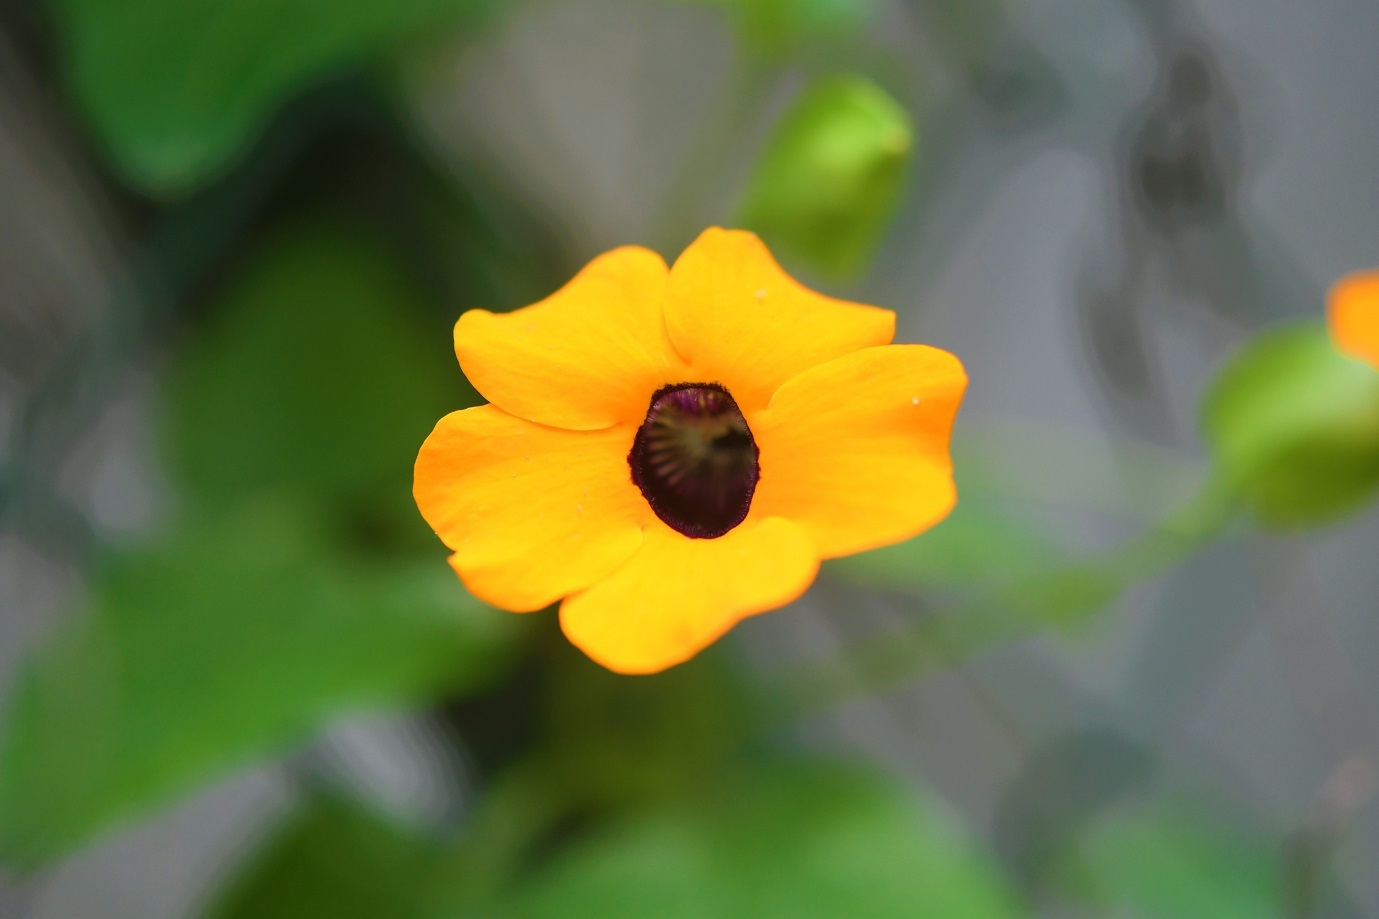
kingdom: Plantae
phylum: Tracheophyta
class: Magnoliopsida
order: Lamiales
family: Acanthaceae
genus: Thunbergia
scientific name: Thunbergia alata
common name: Blackeyed susan vine
